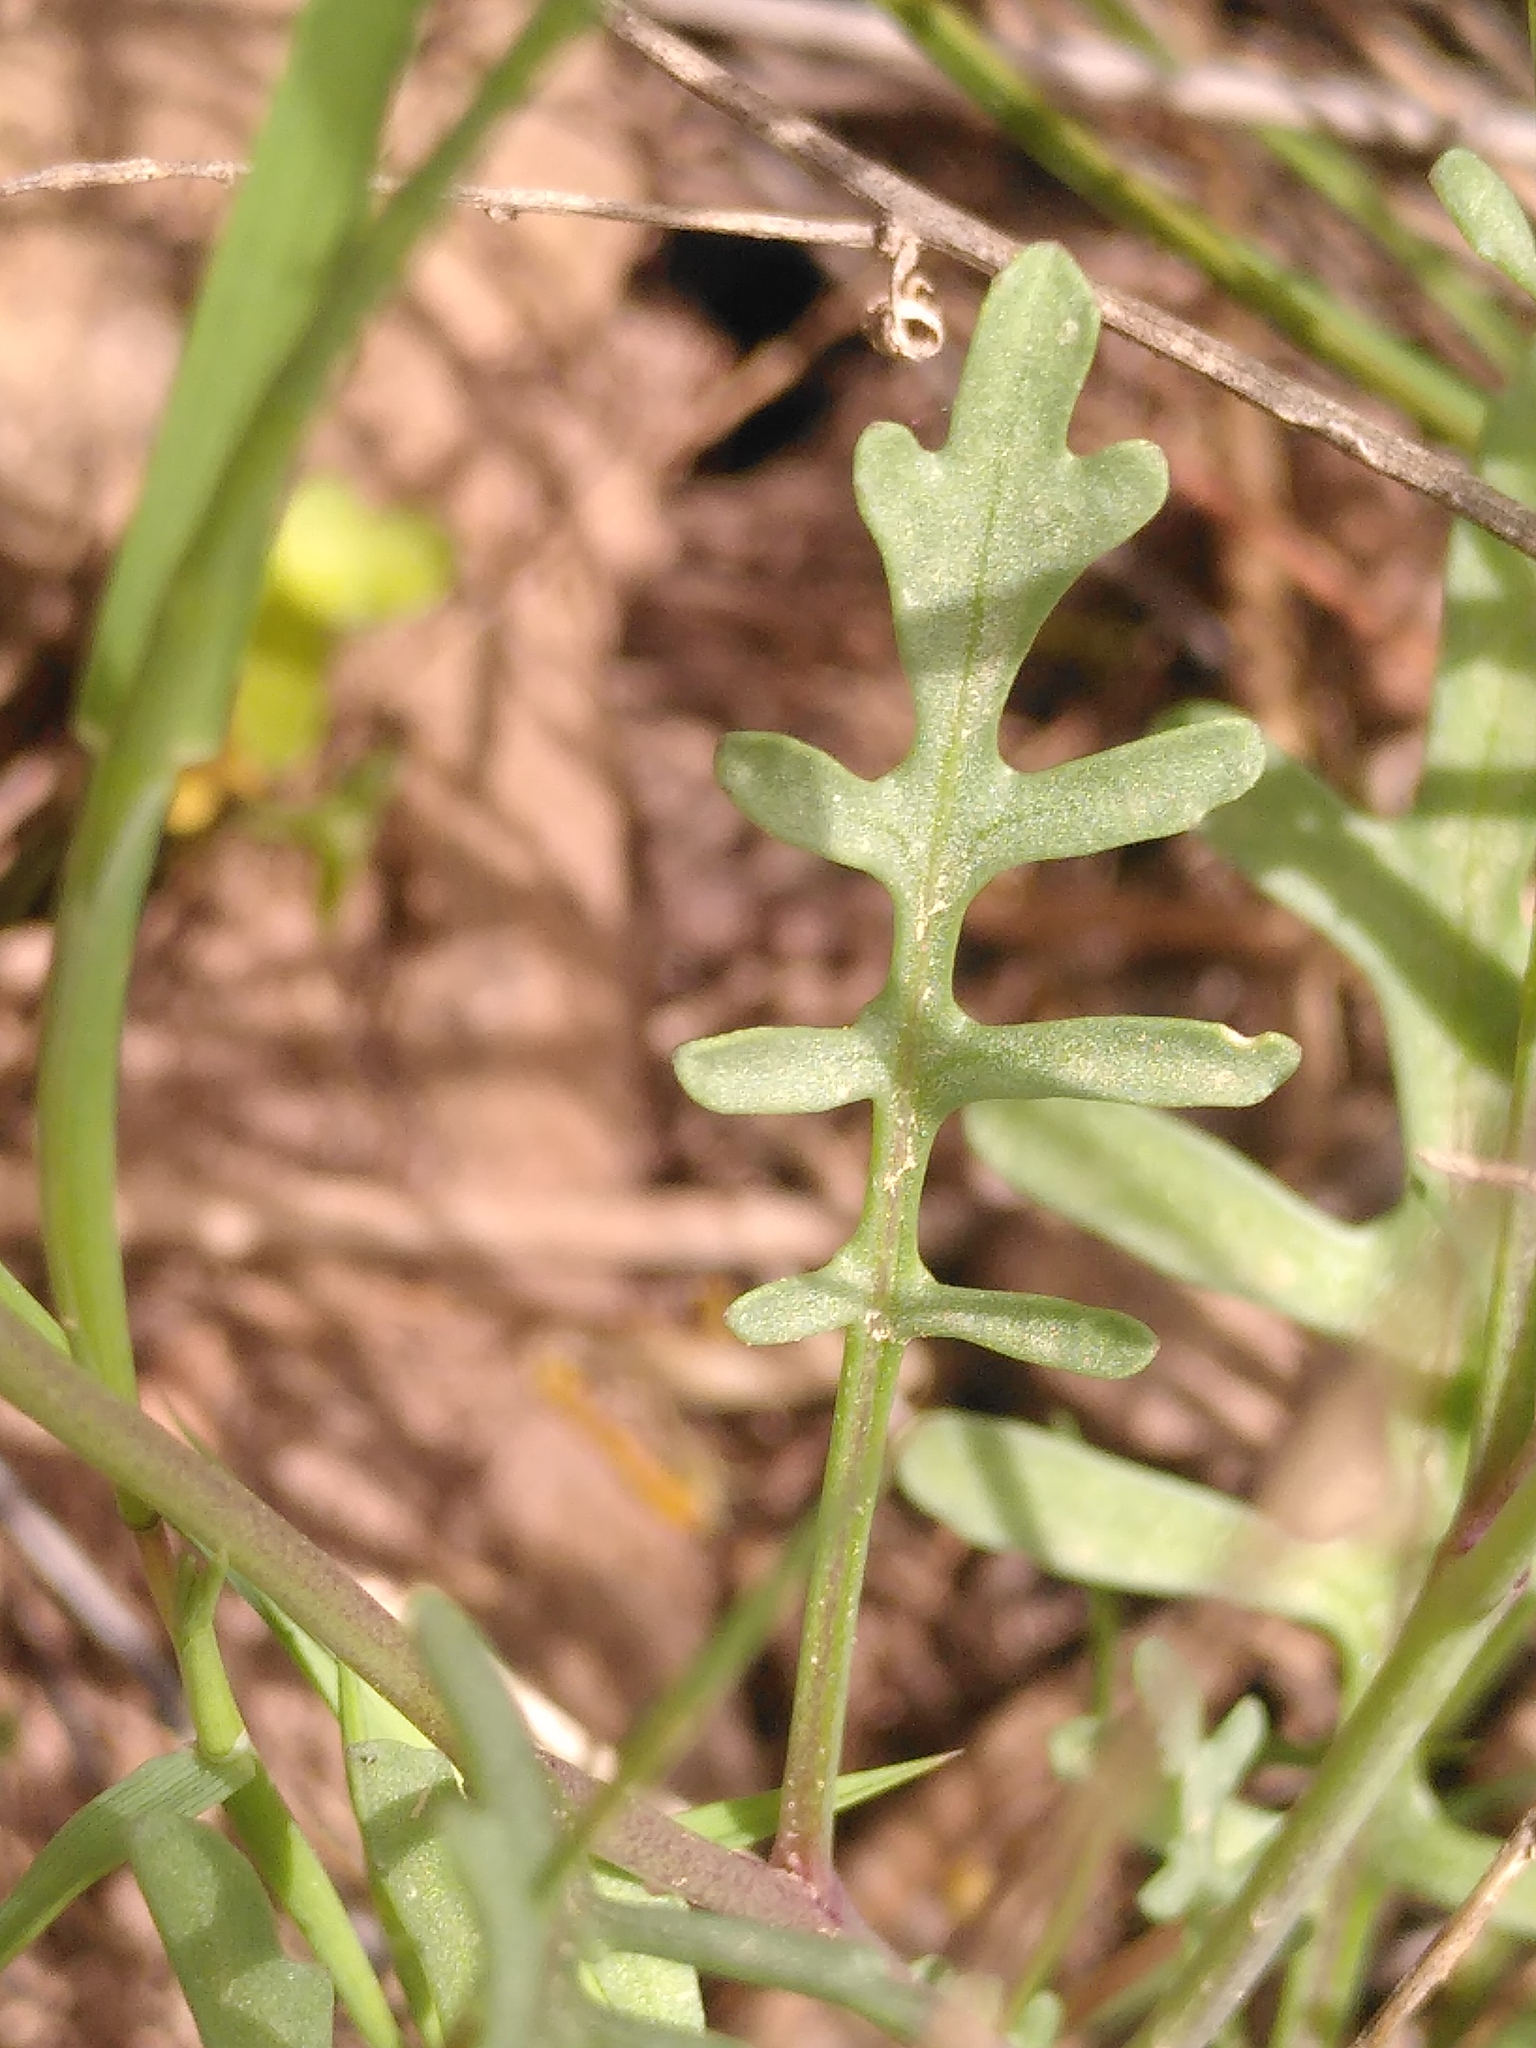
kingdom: Plantae
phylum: Tracheophyta
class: Magnoliopsida
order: Brassicales
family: Brassicaceae
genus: Cakile
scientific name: Cakile maritima
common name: Sea rocket
